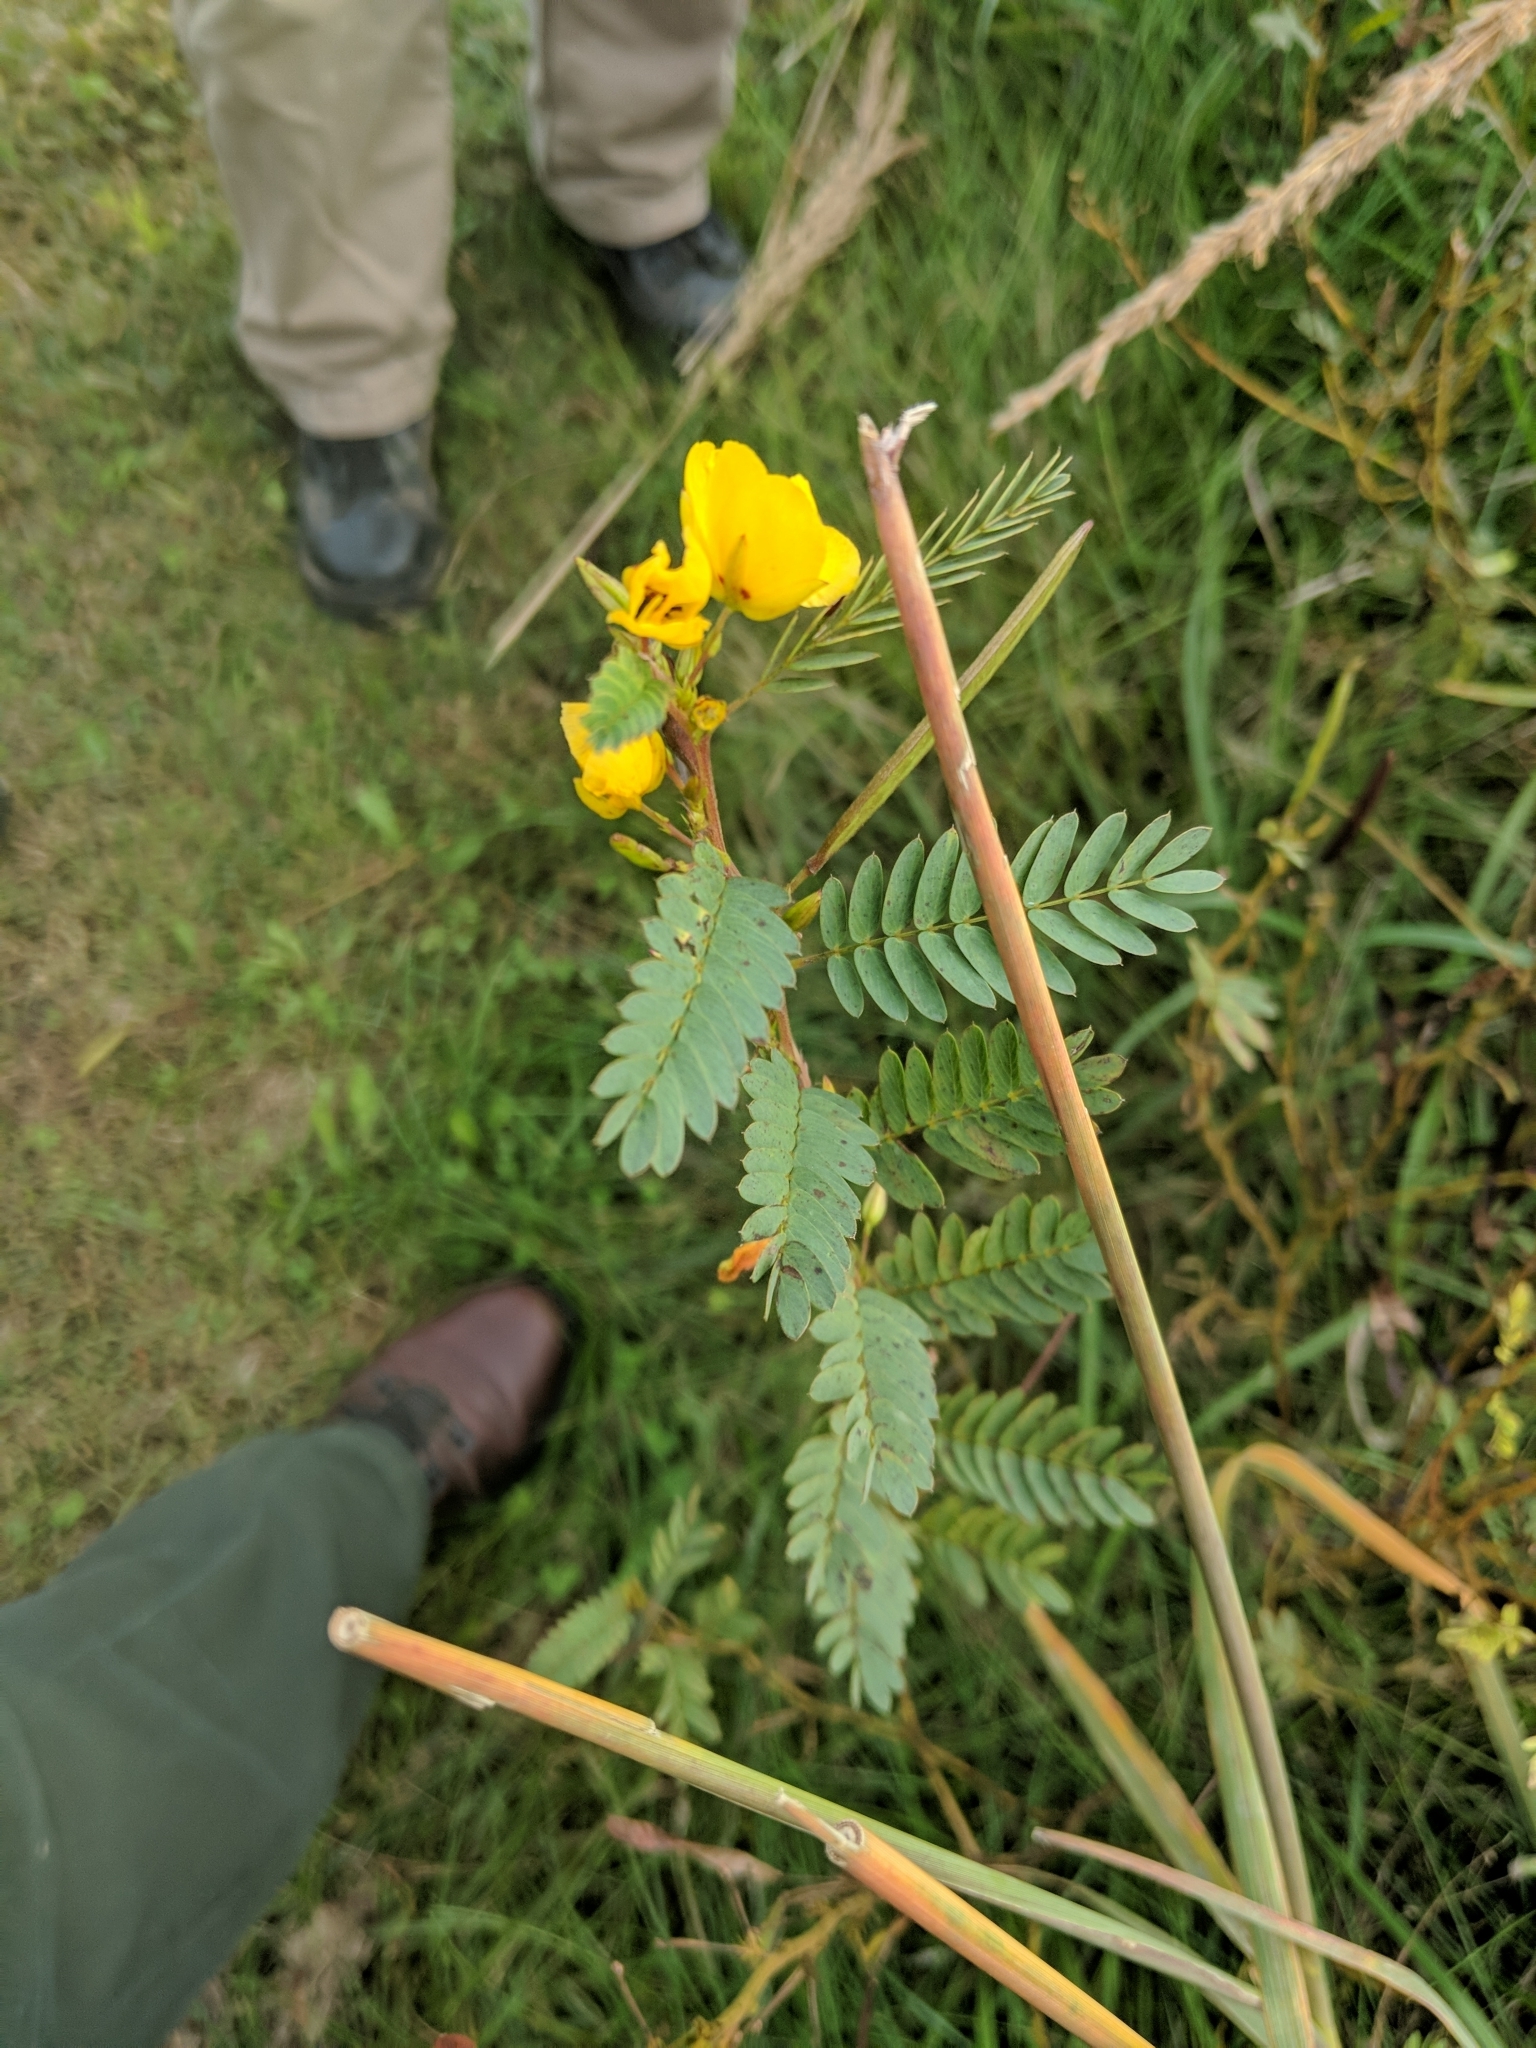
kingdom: Plantae
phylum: Tracheophyta
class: Magnoliopsida
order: Fabales
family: Fabaceae
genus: Chamaecrista
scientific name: Chamaecrista fasciculata
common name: Golden cassia
